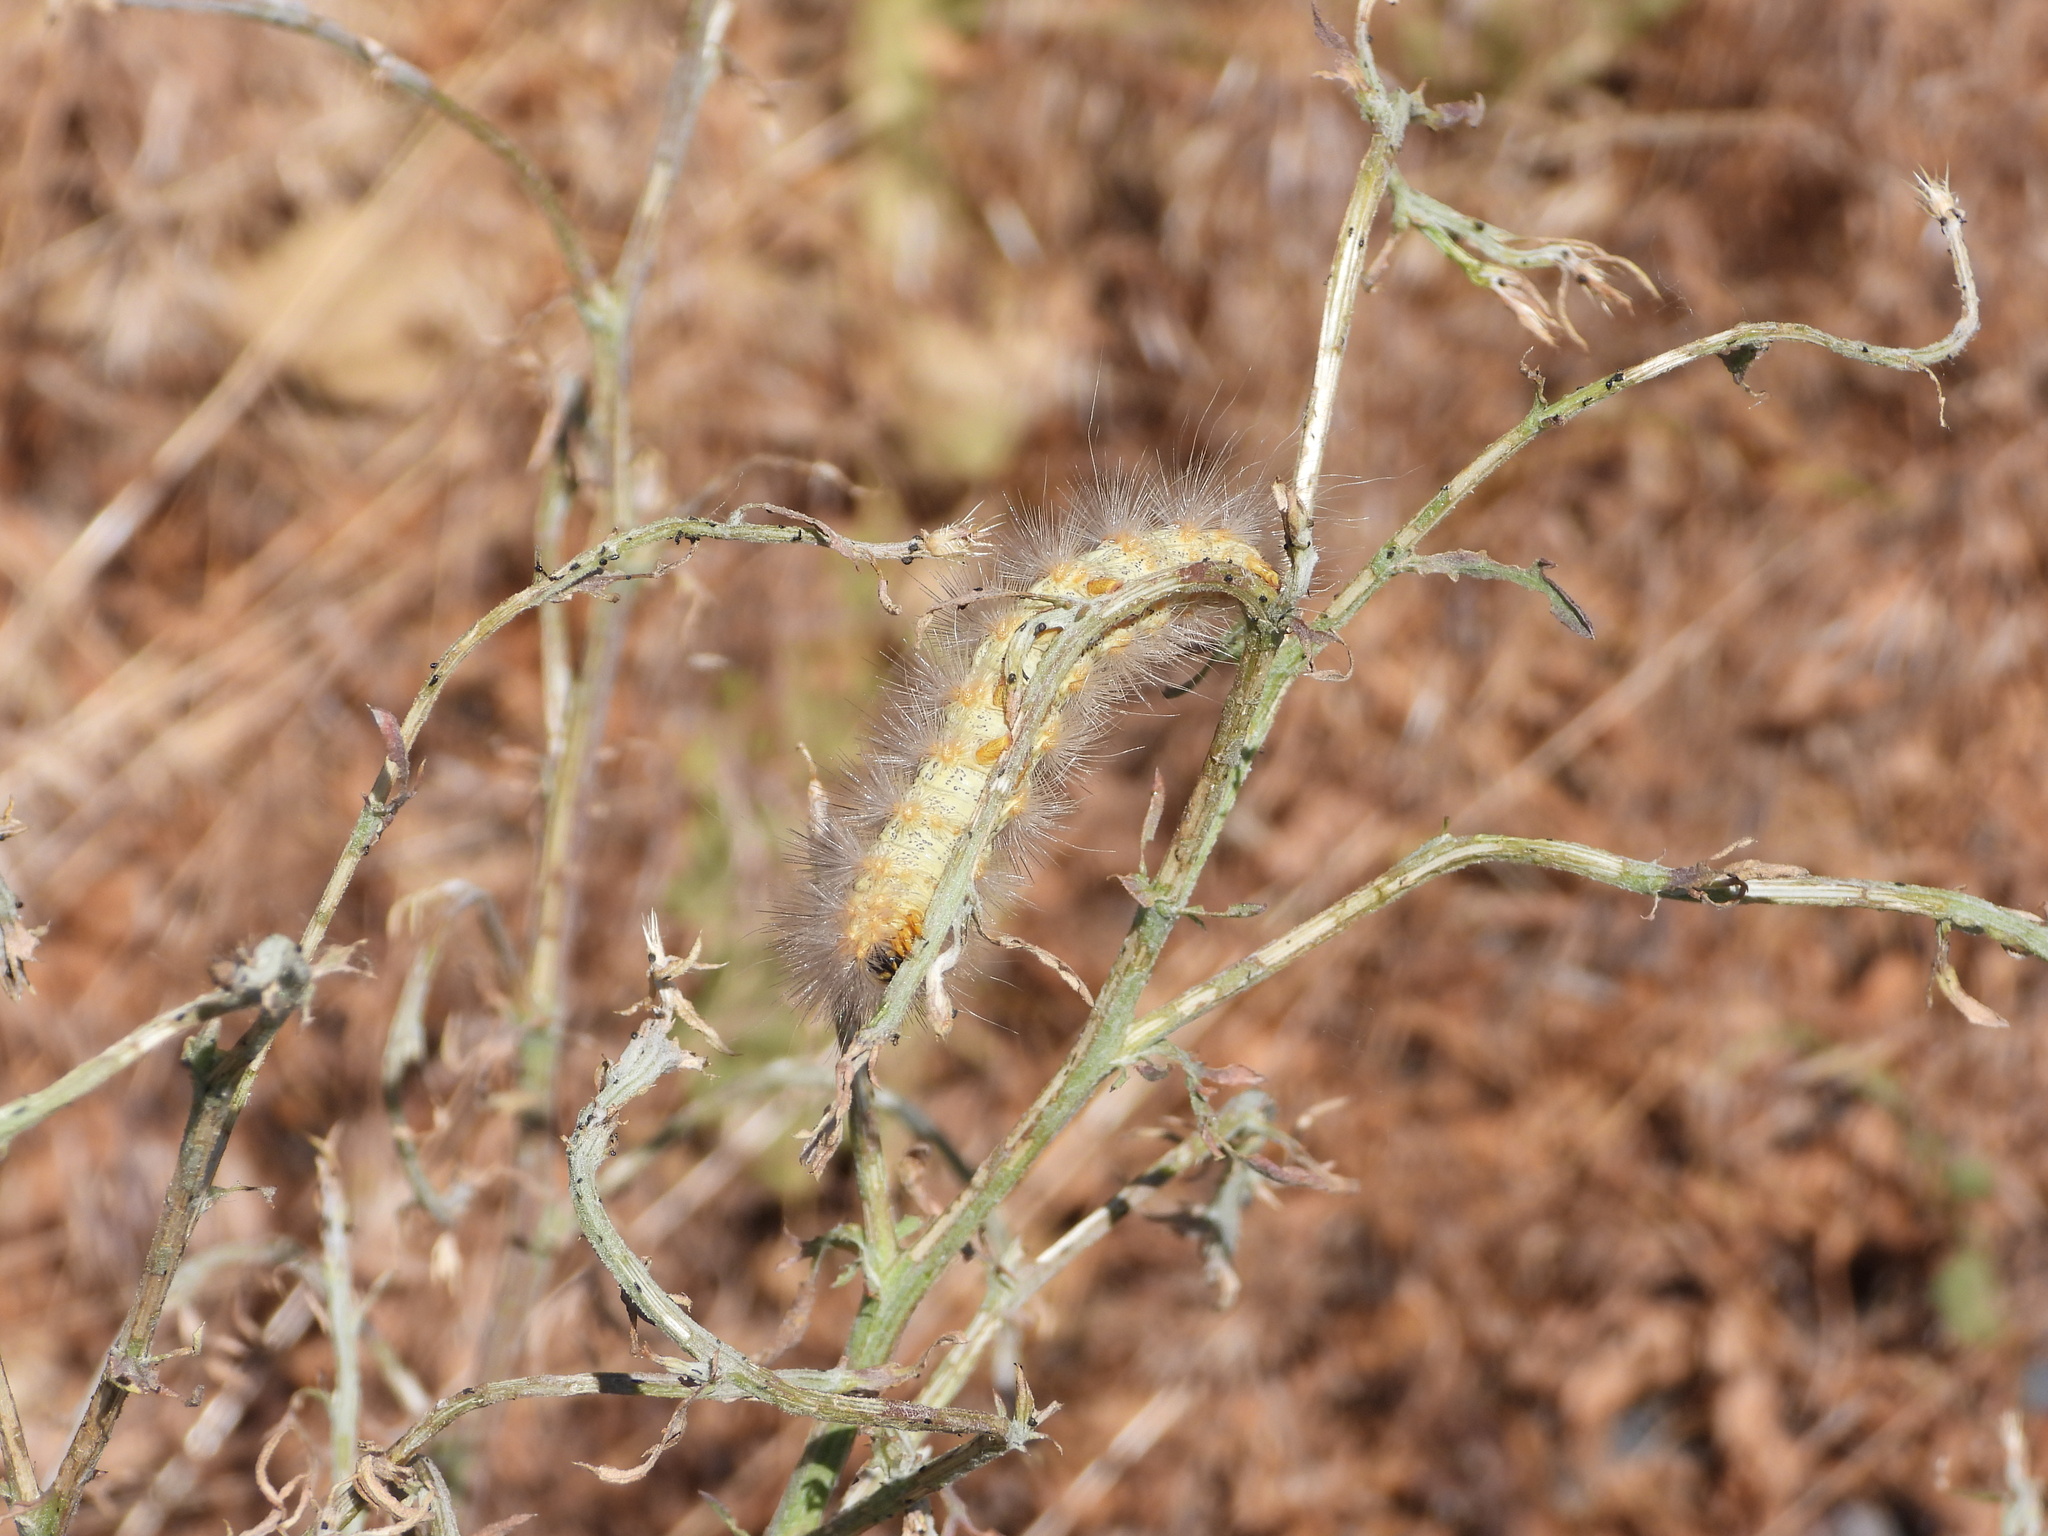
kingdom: Animalia
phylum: Arthropoda
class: Insecta
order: Lepidoptera
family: Erebidae
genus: Estigmene
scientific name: Estigmene
